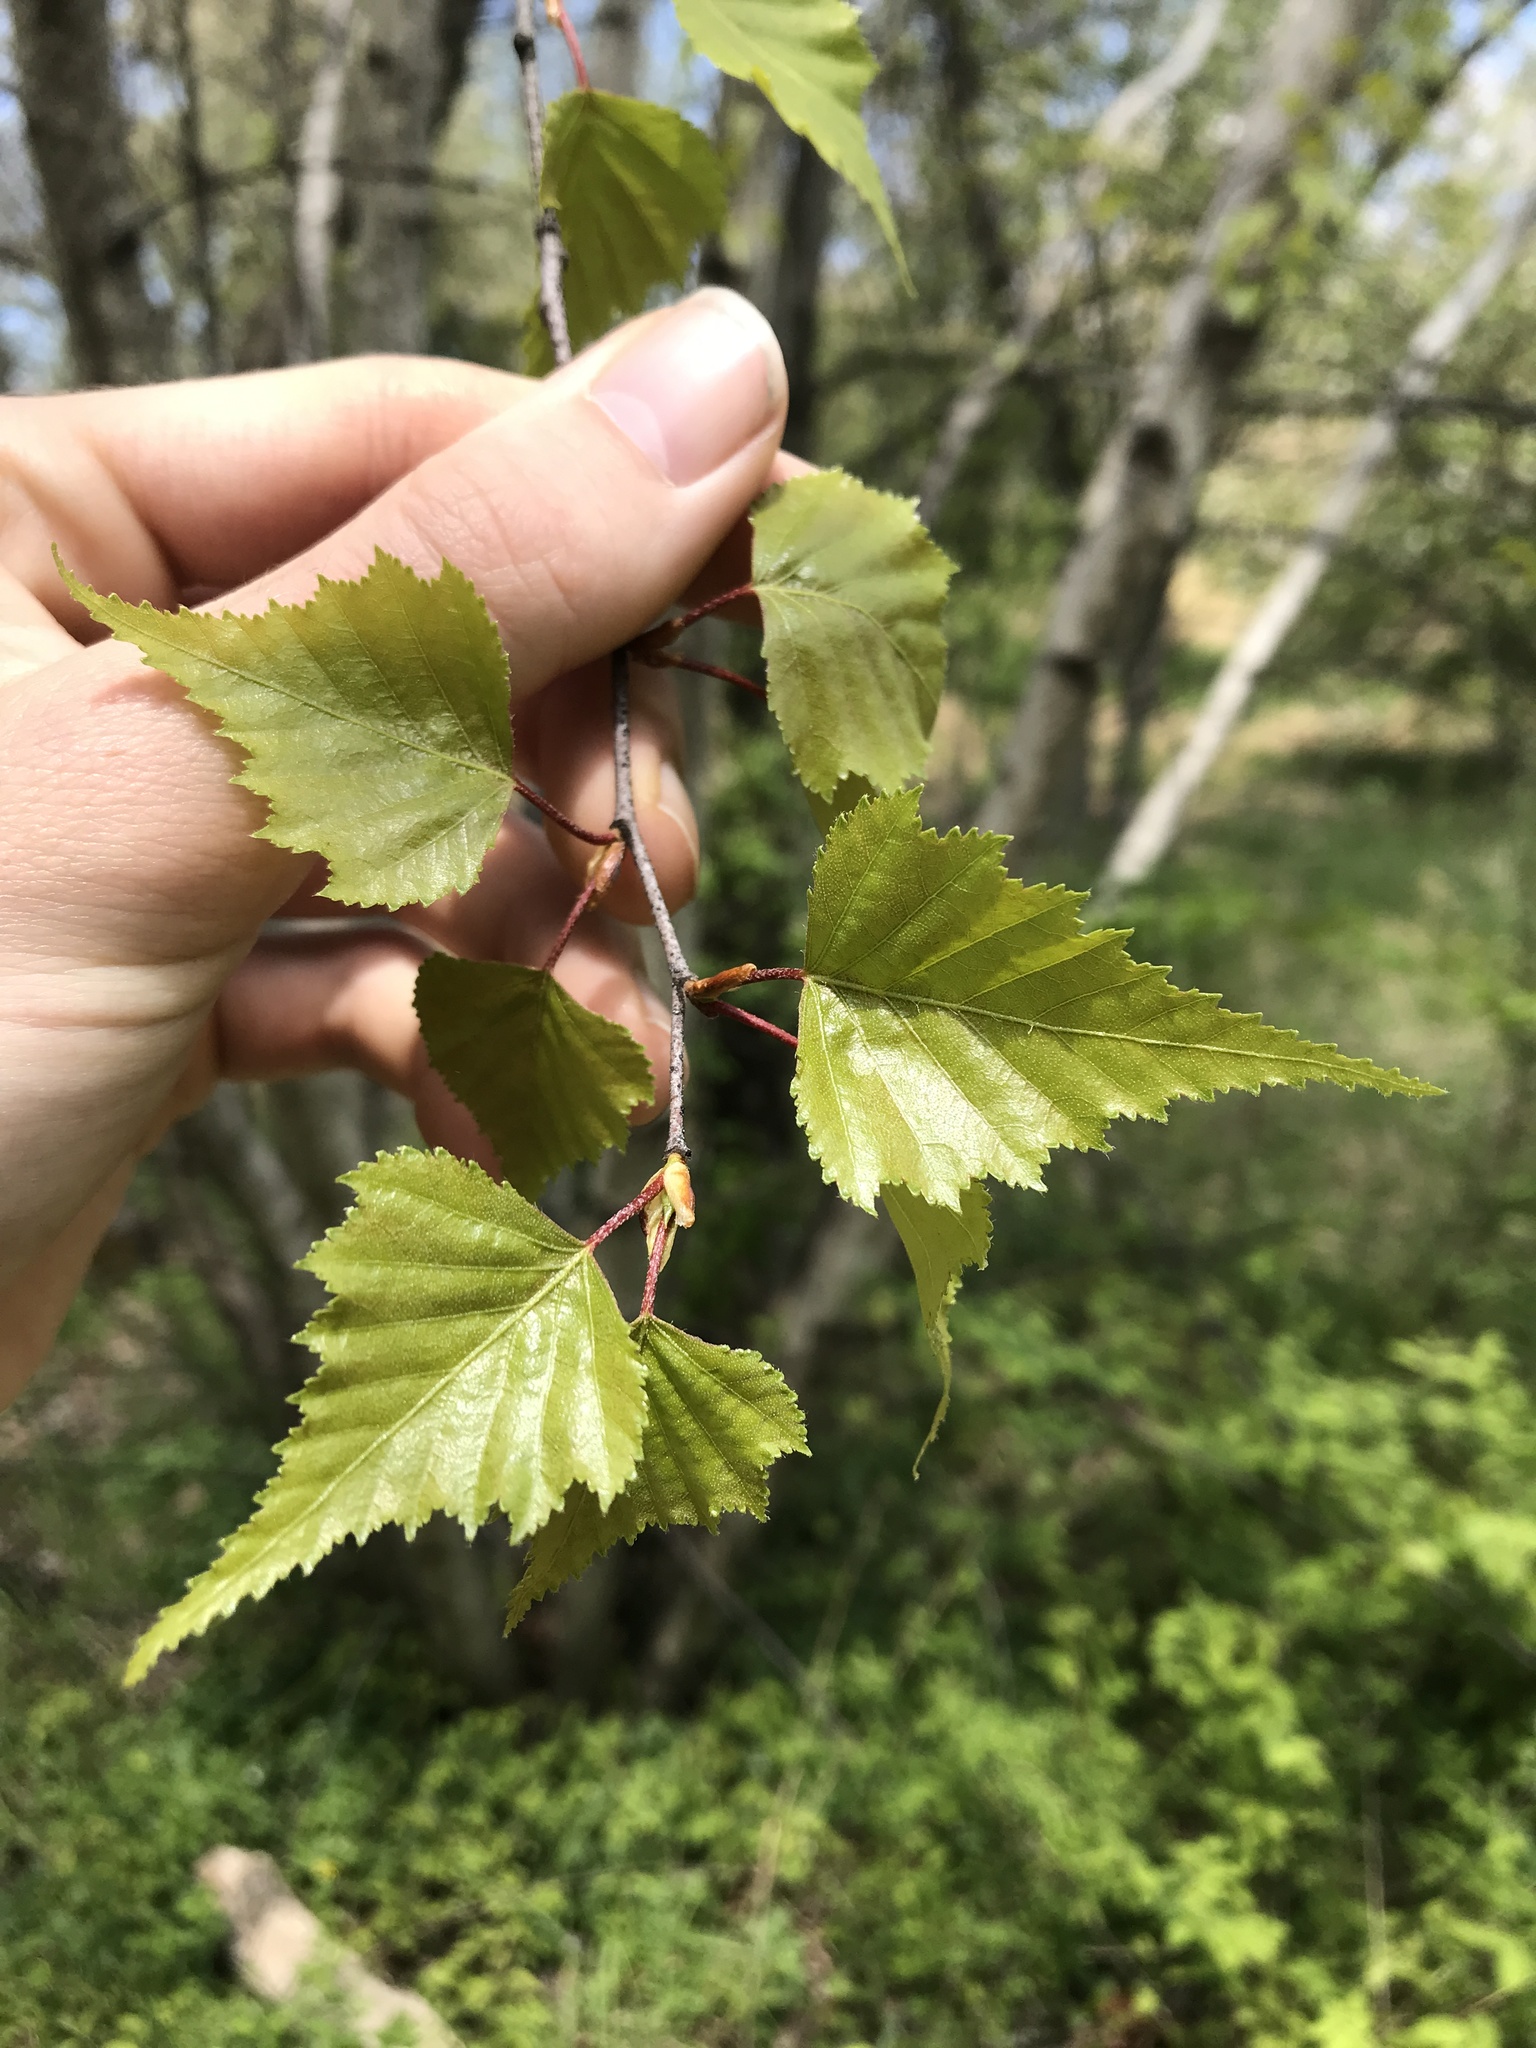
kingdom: Plantae
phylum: Tracheophyta
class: Magnoliopsida
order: Fagales
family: Betulaceae
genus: Betula
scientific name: Betula populifolia
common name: Fire birch
